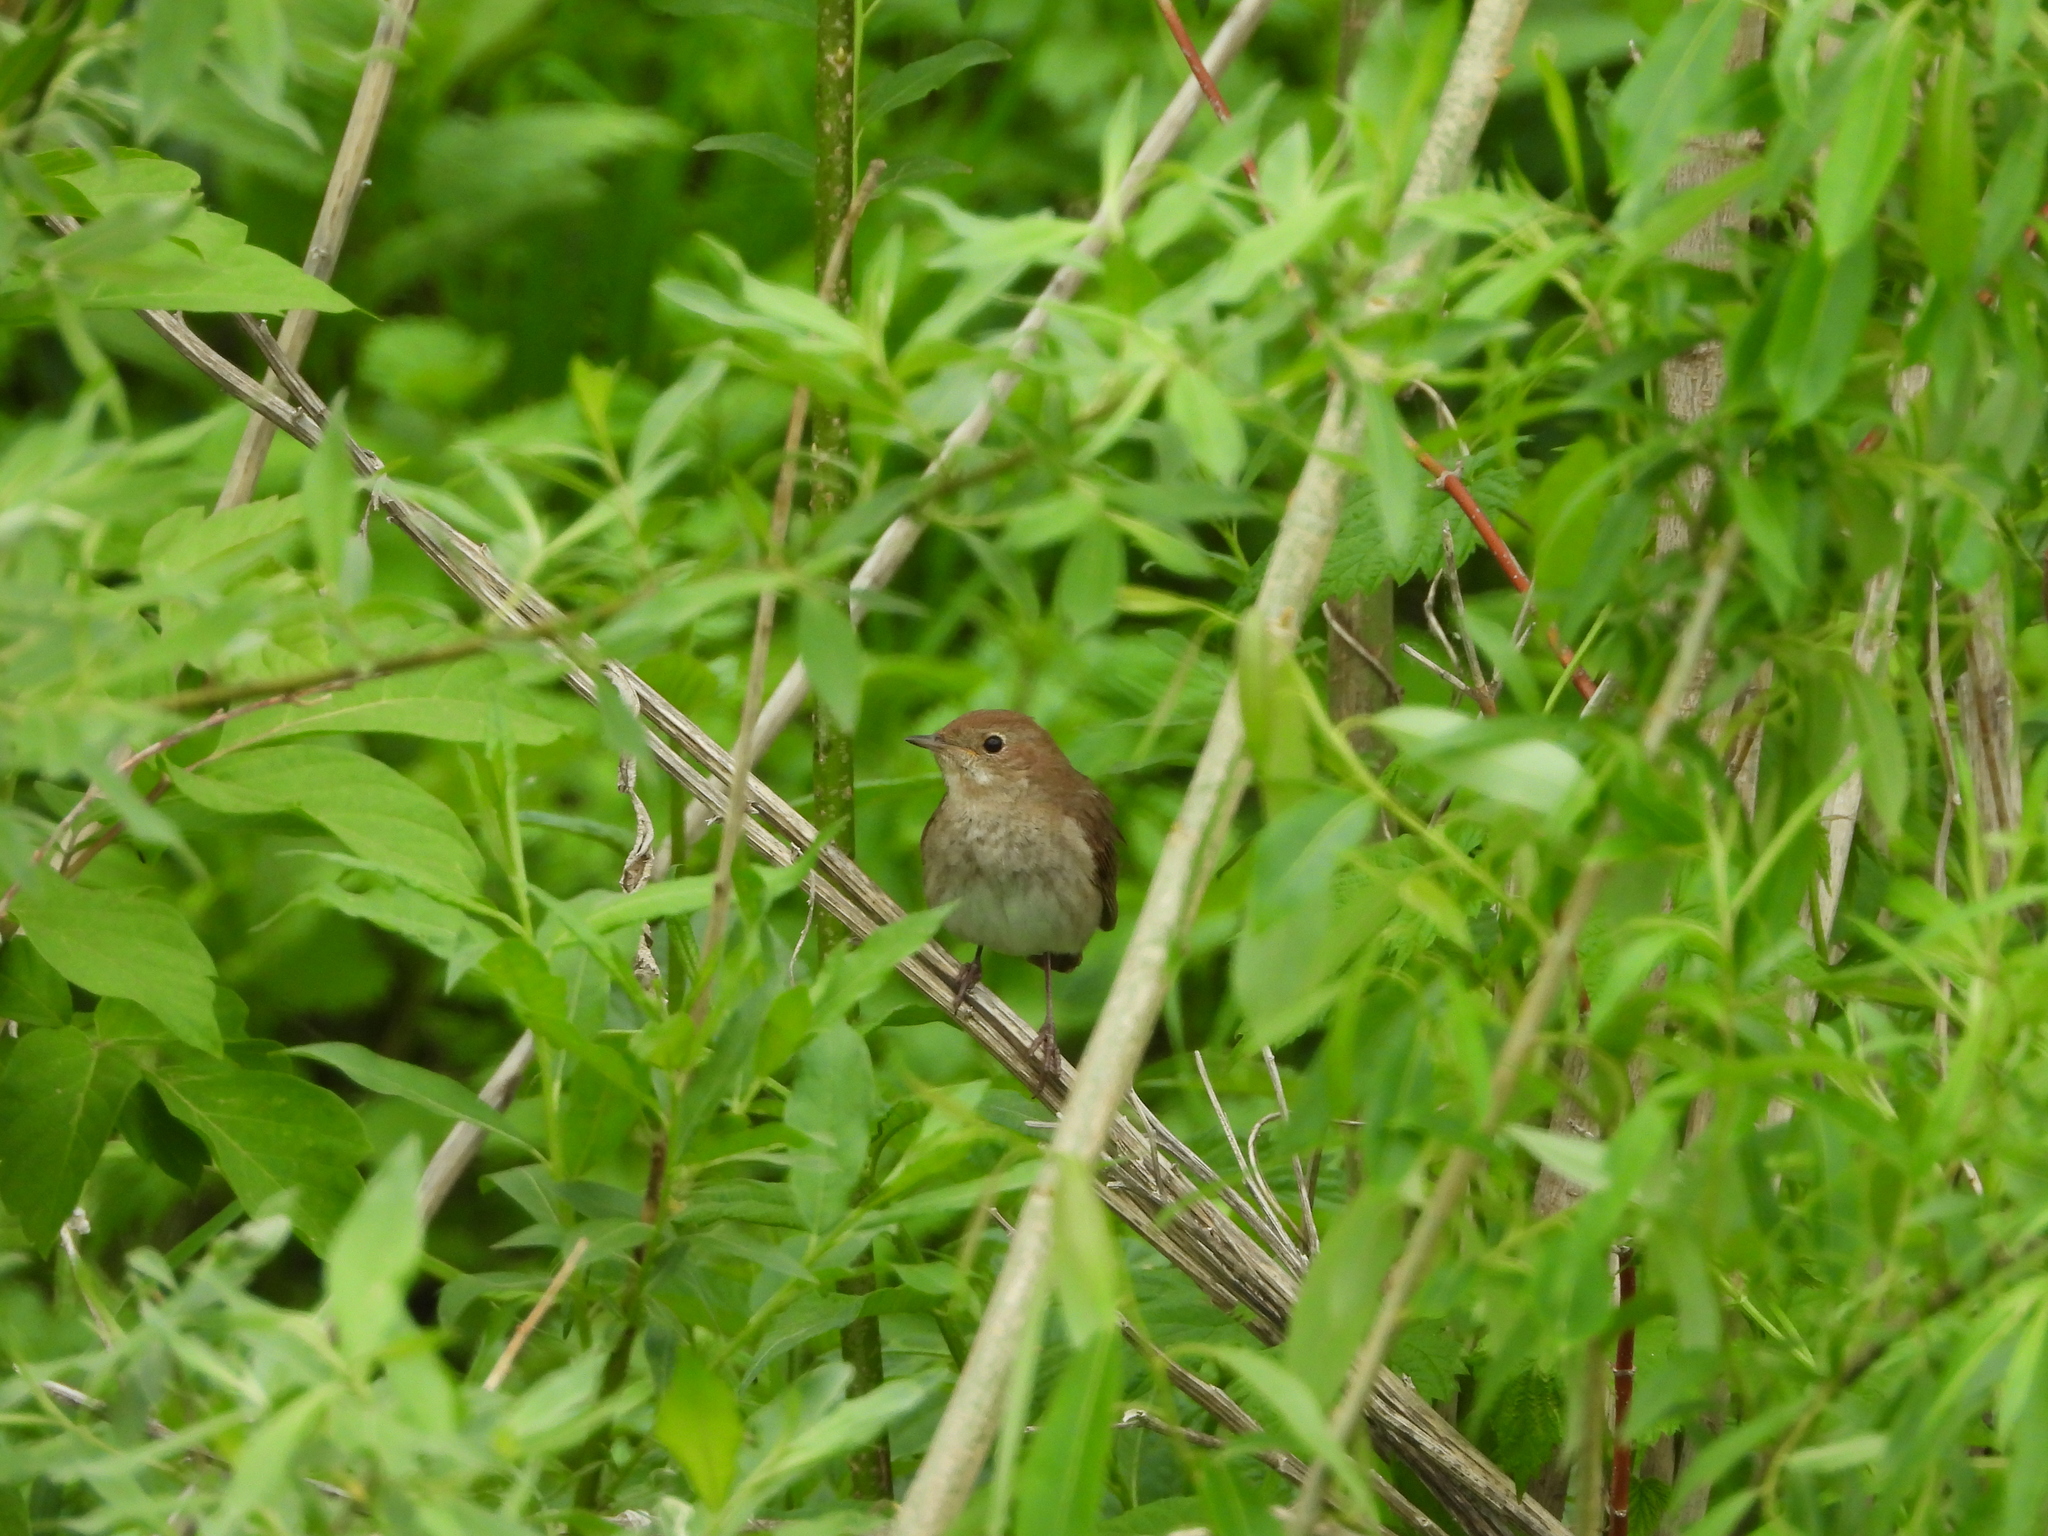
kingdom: Animalia
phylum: Chordata
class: Aves
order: Passeriformes
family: Muscicapidae
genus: Luscinia
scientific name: Luscinia luscinia
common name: Thrush nightingale
